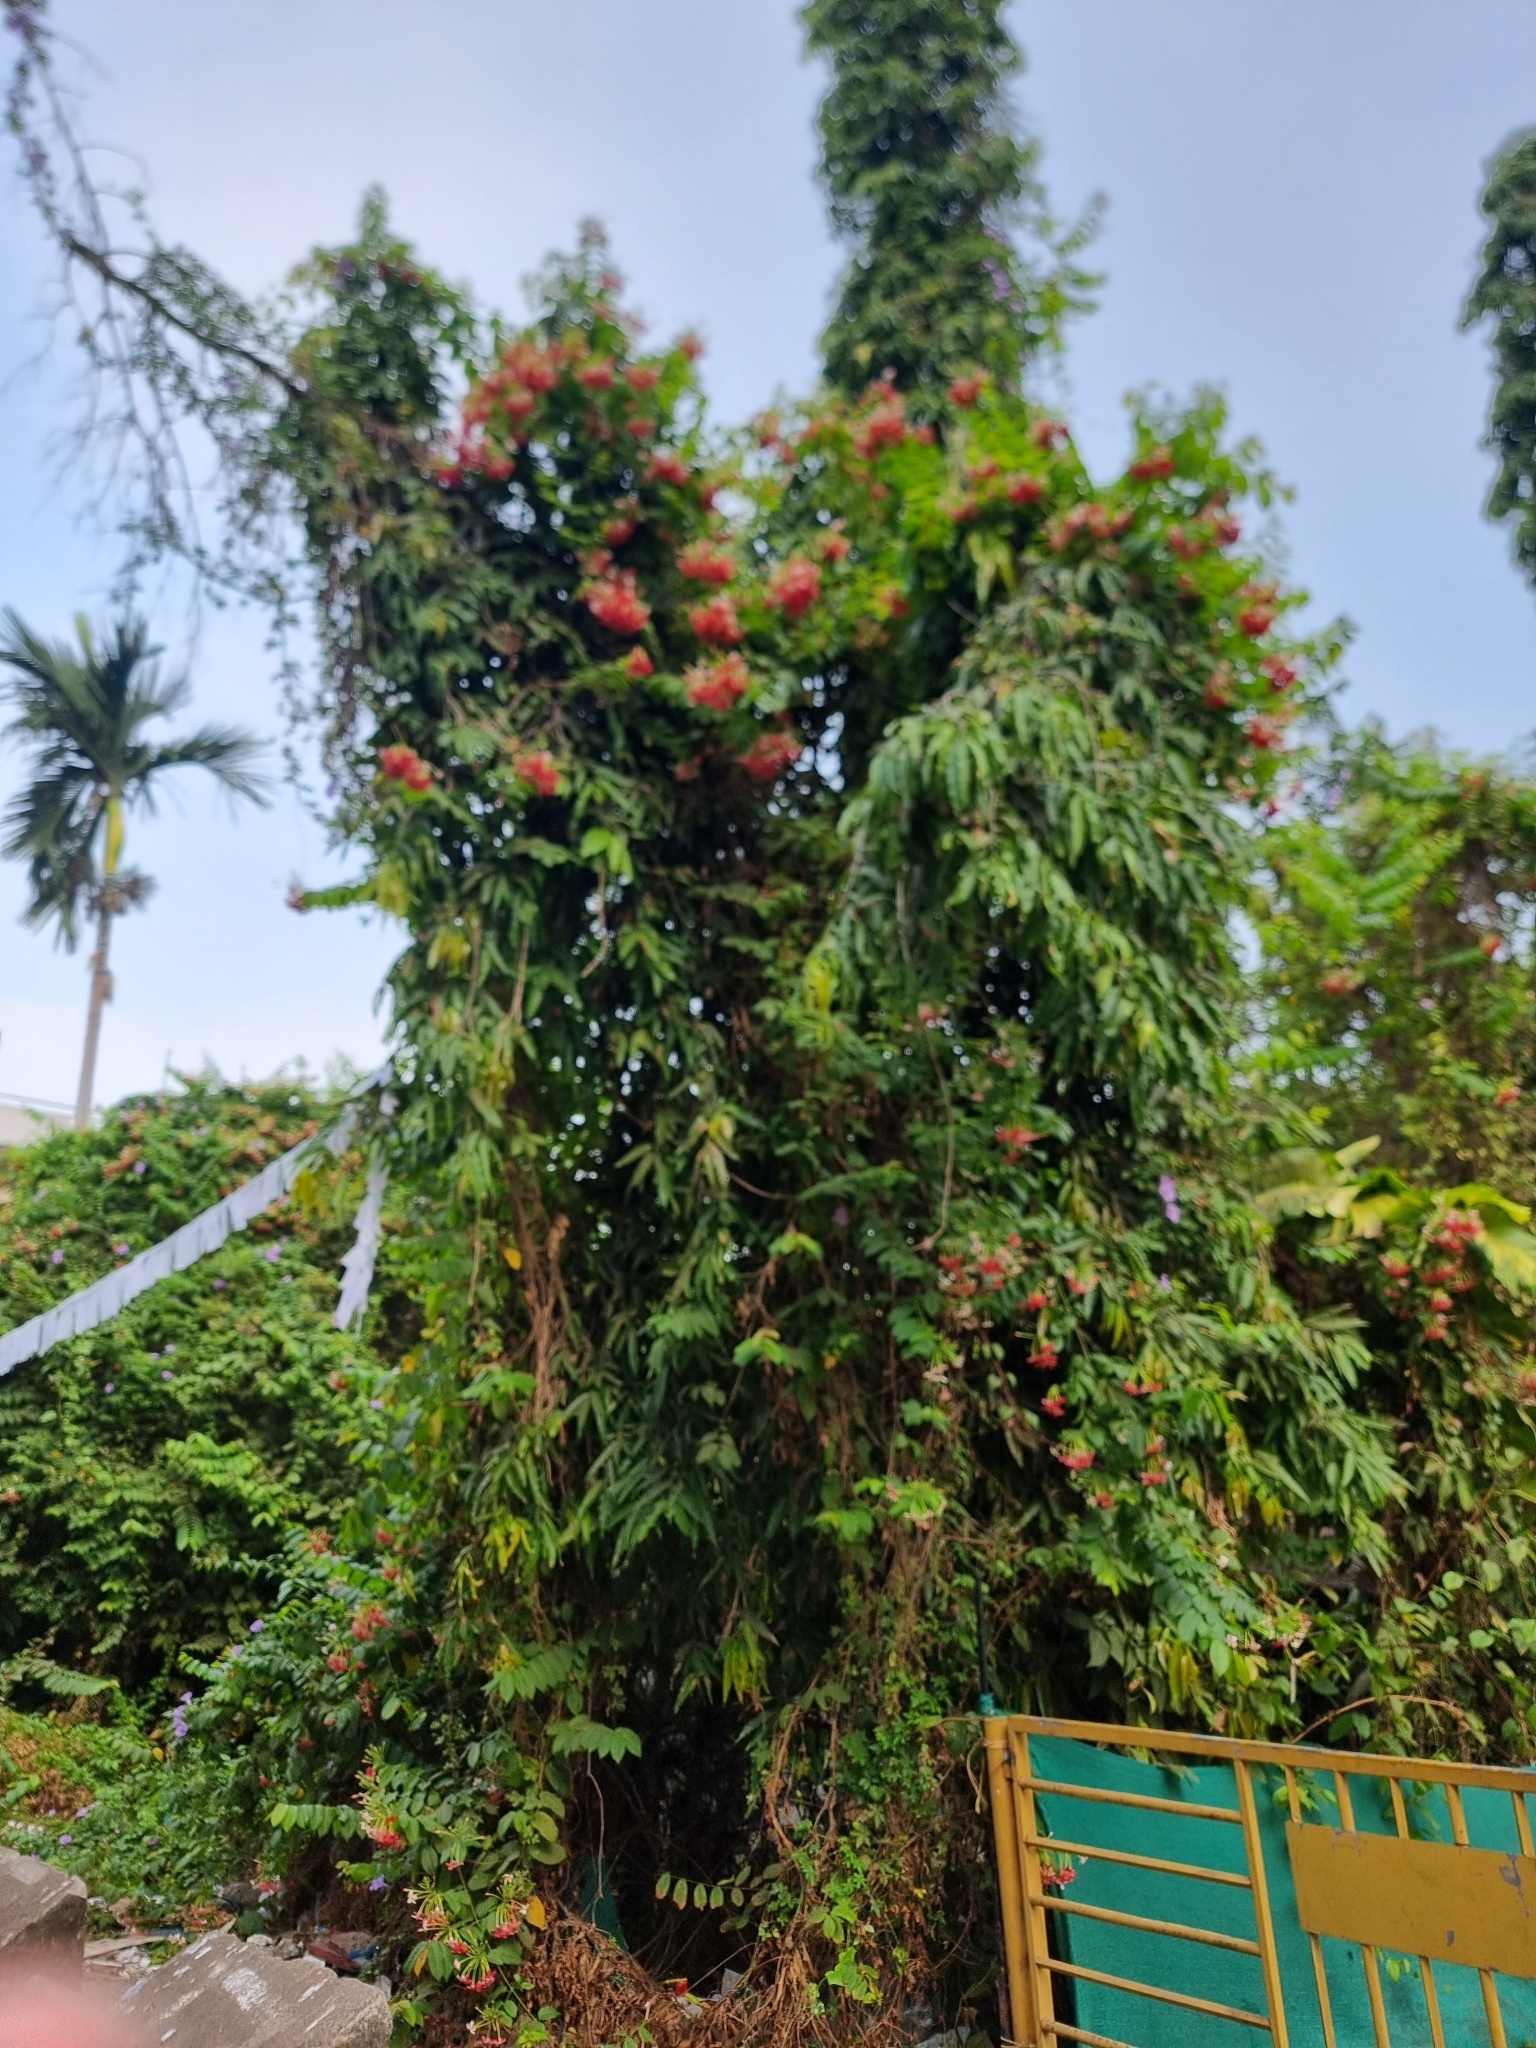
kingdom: Plantae
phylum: Tracheophyta
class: Magnoliopsida
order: Myrtales
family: Combretaceae
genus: Combretum
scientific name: Combretum indicum
